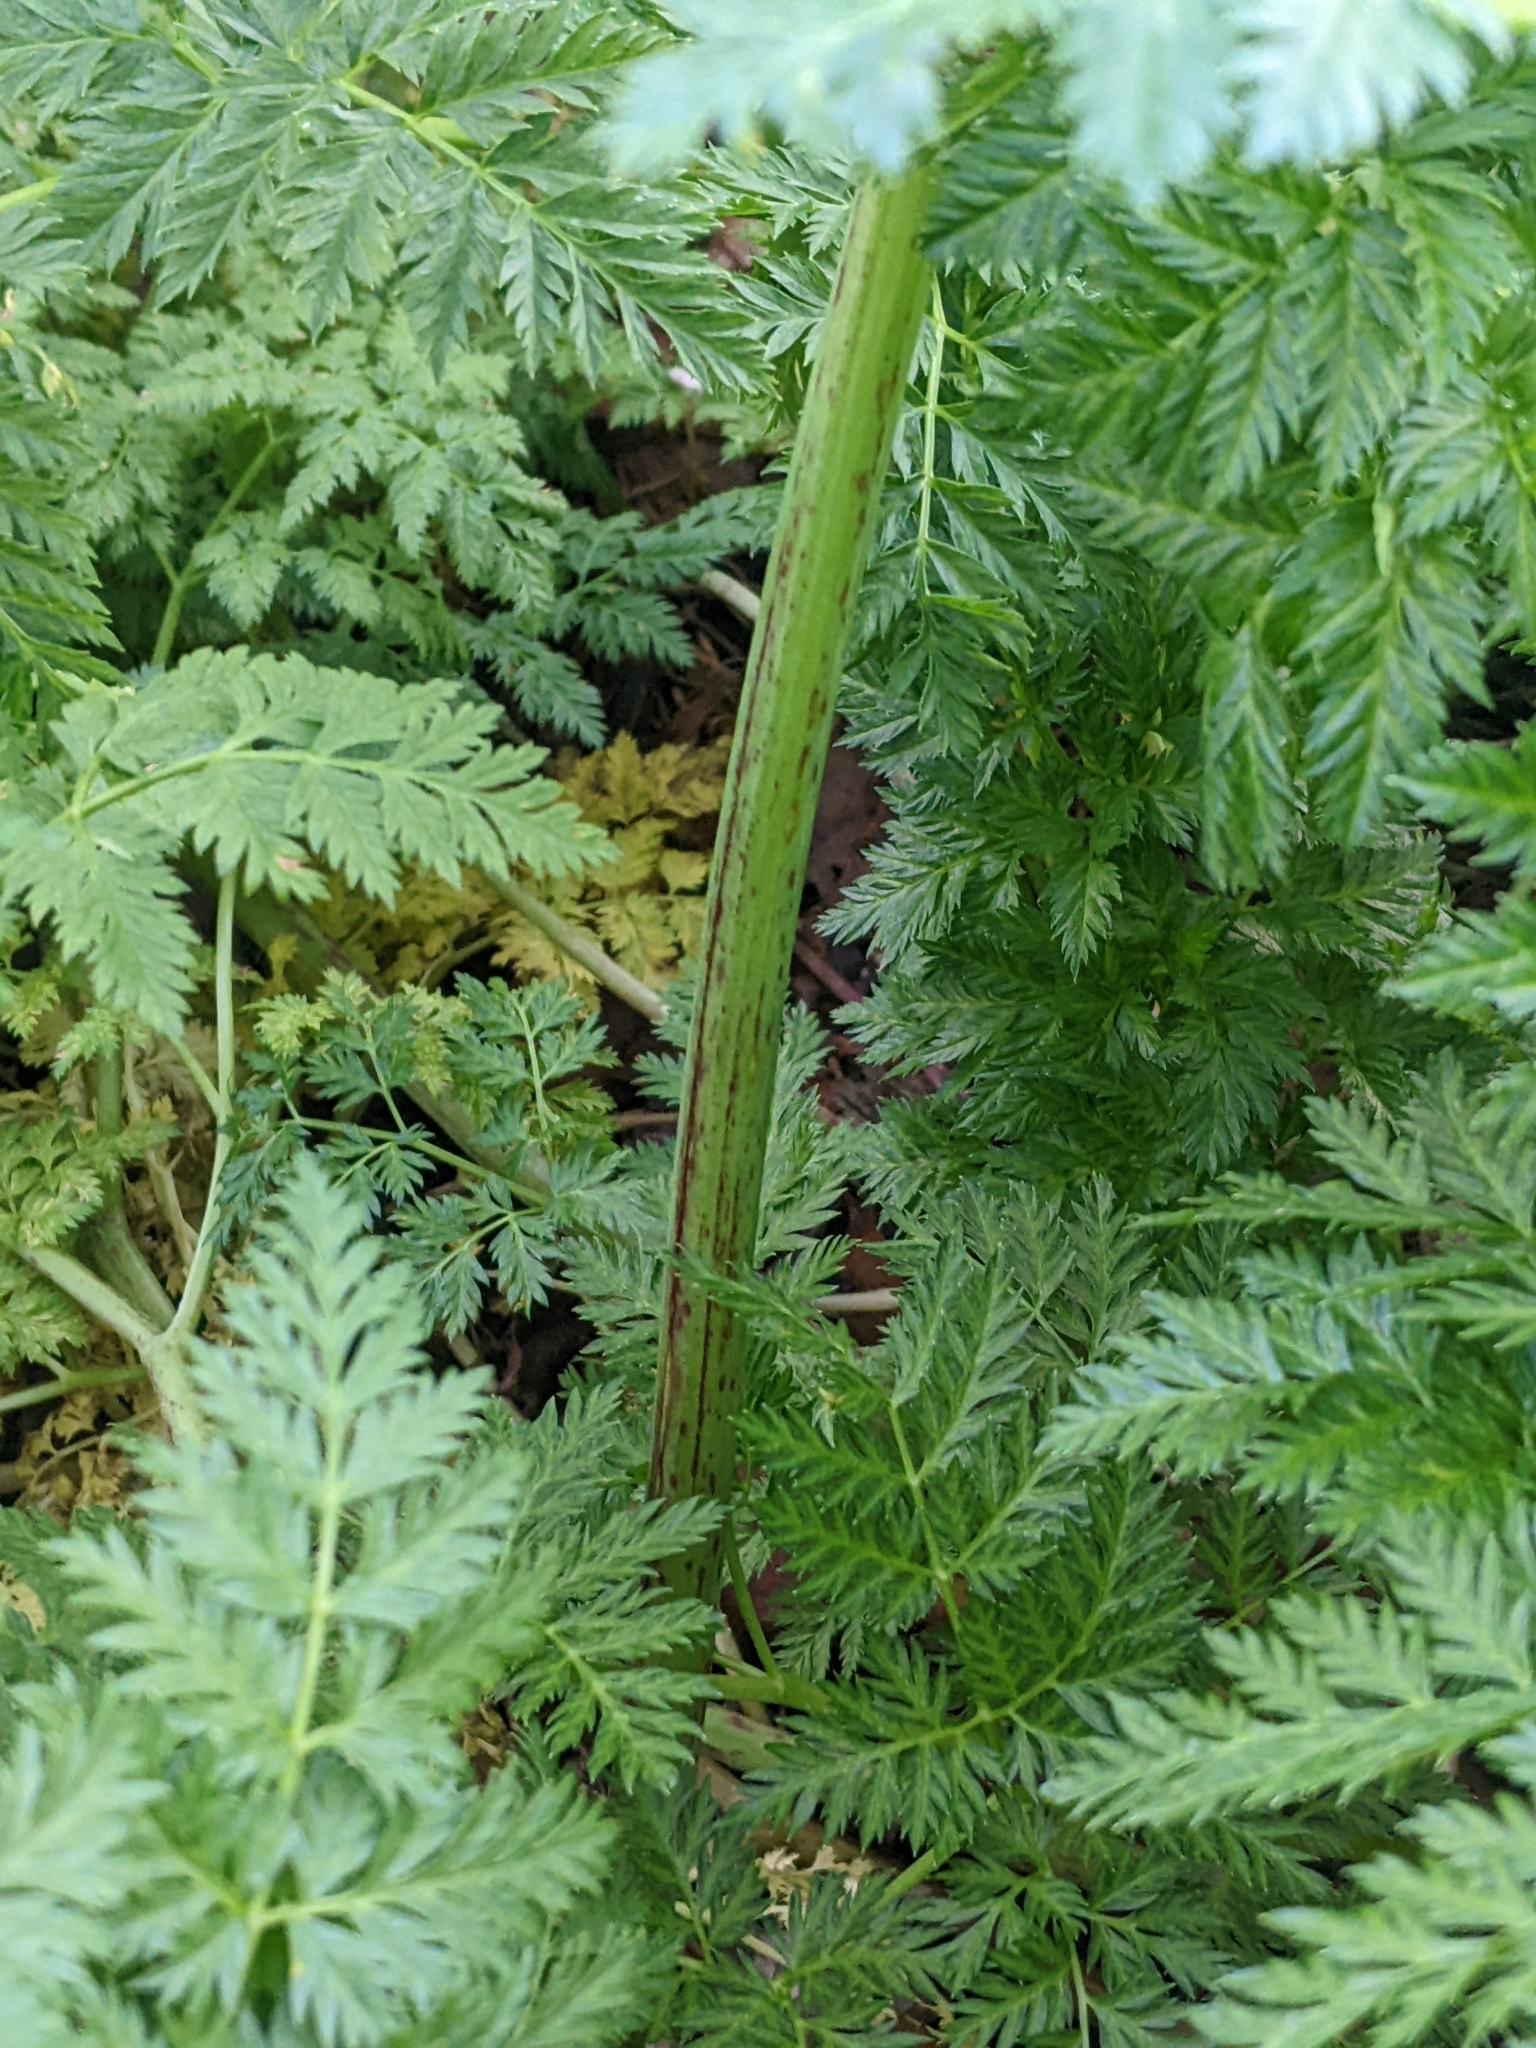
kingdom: Plantae
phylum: Tracheophyta
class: Magnoliopsida
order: Apiales
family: Apiaceae
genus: Conium
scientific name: Conium maculatum
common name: Hemlock
